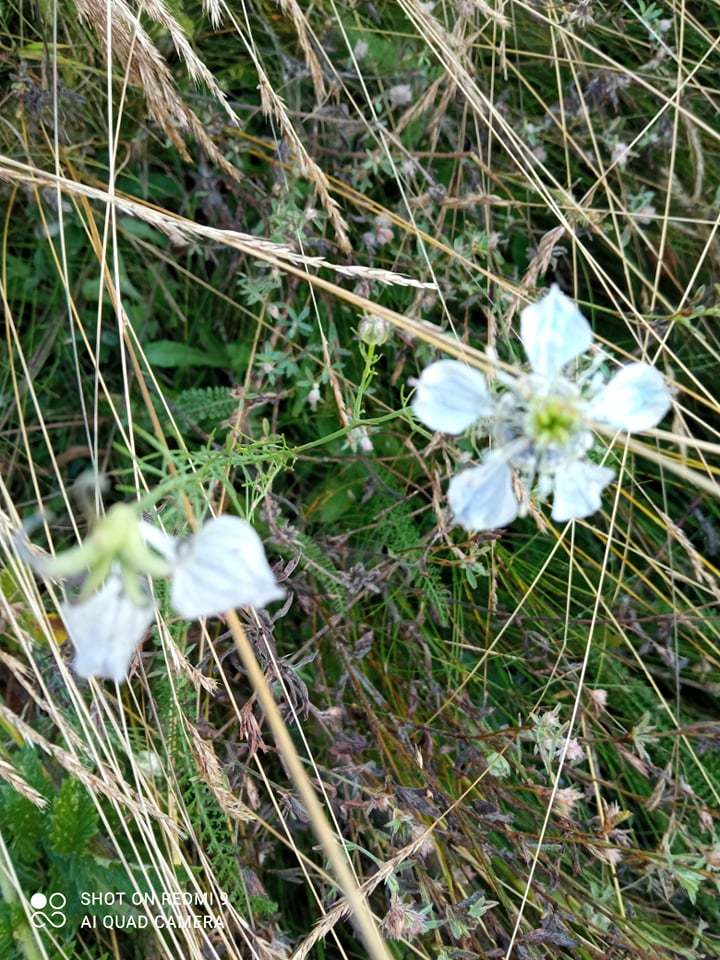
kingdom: Plantae
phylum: Tracheophyta
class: Magnoliopsida
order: Ranunculales
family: Ranunculaceae
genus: Nigella
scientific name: Nigella arvensis
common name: Wild fennel-flower
